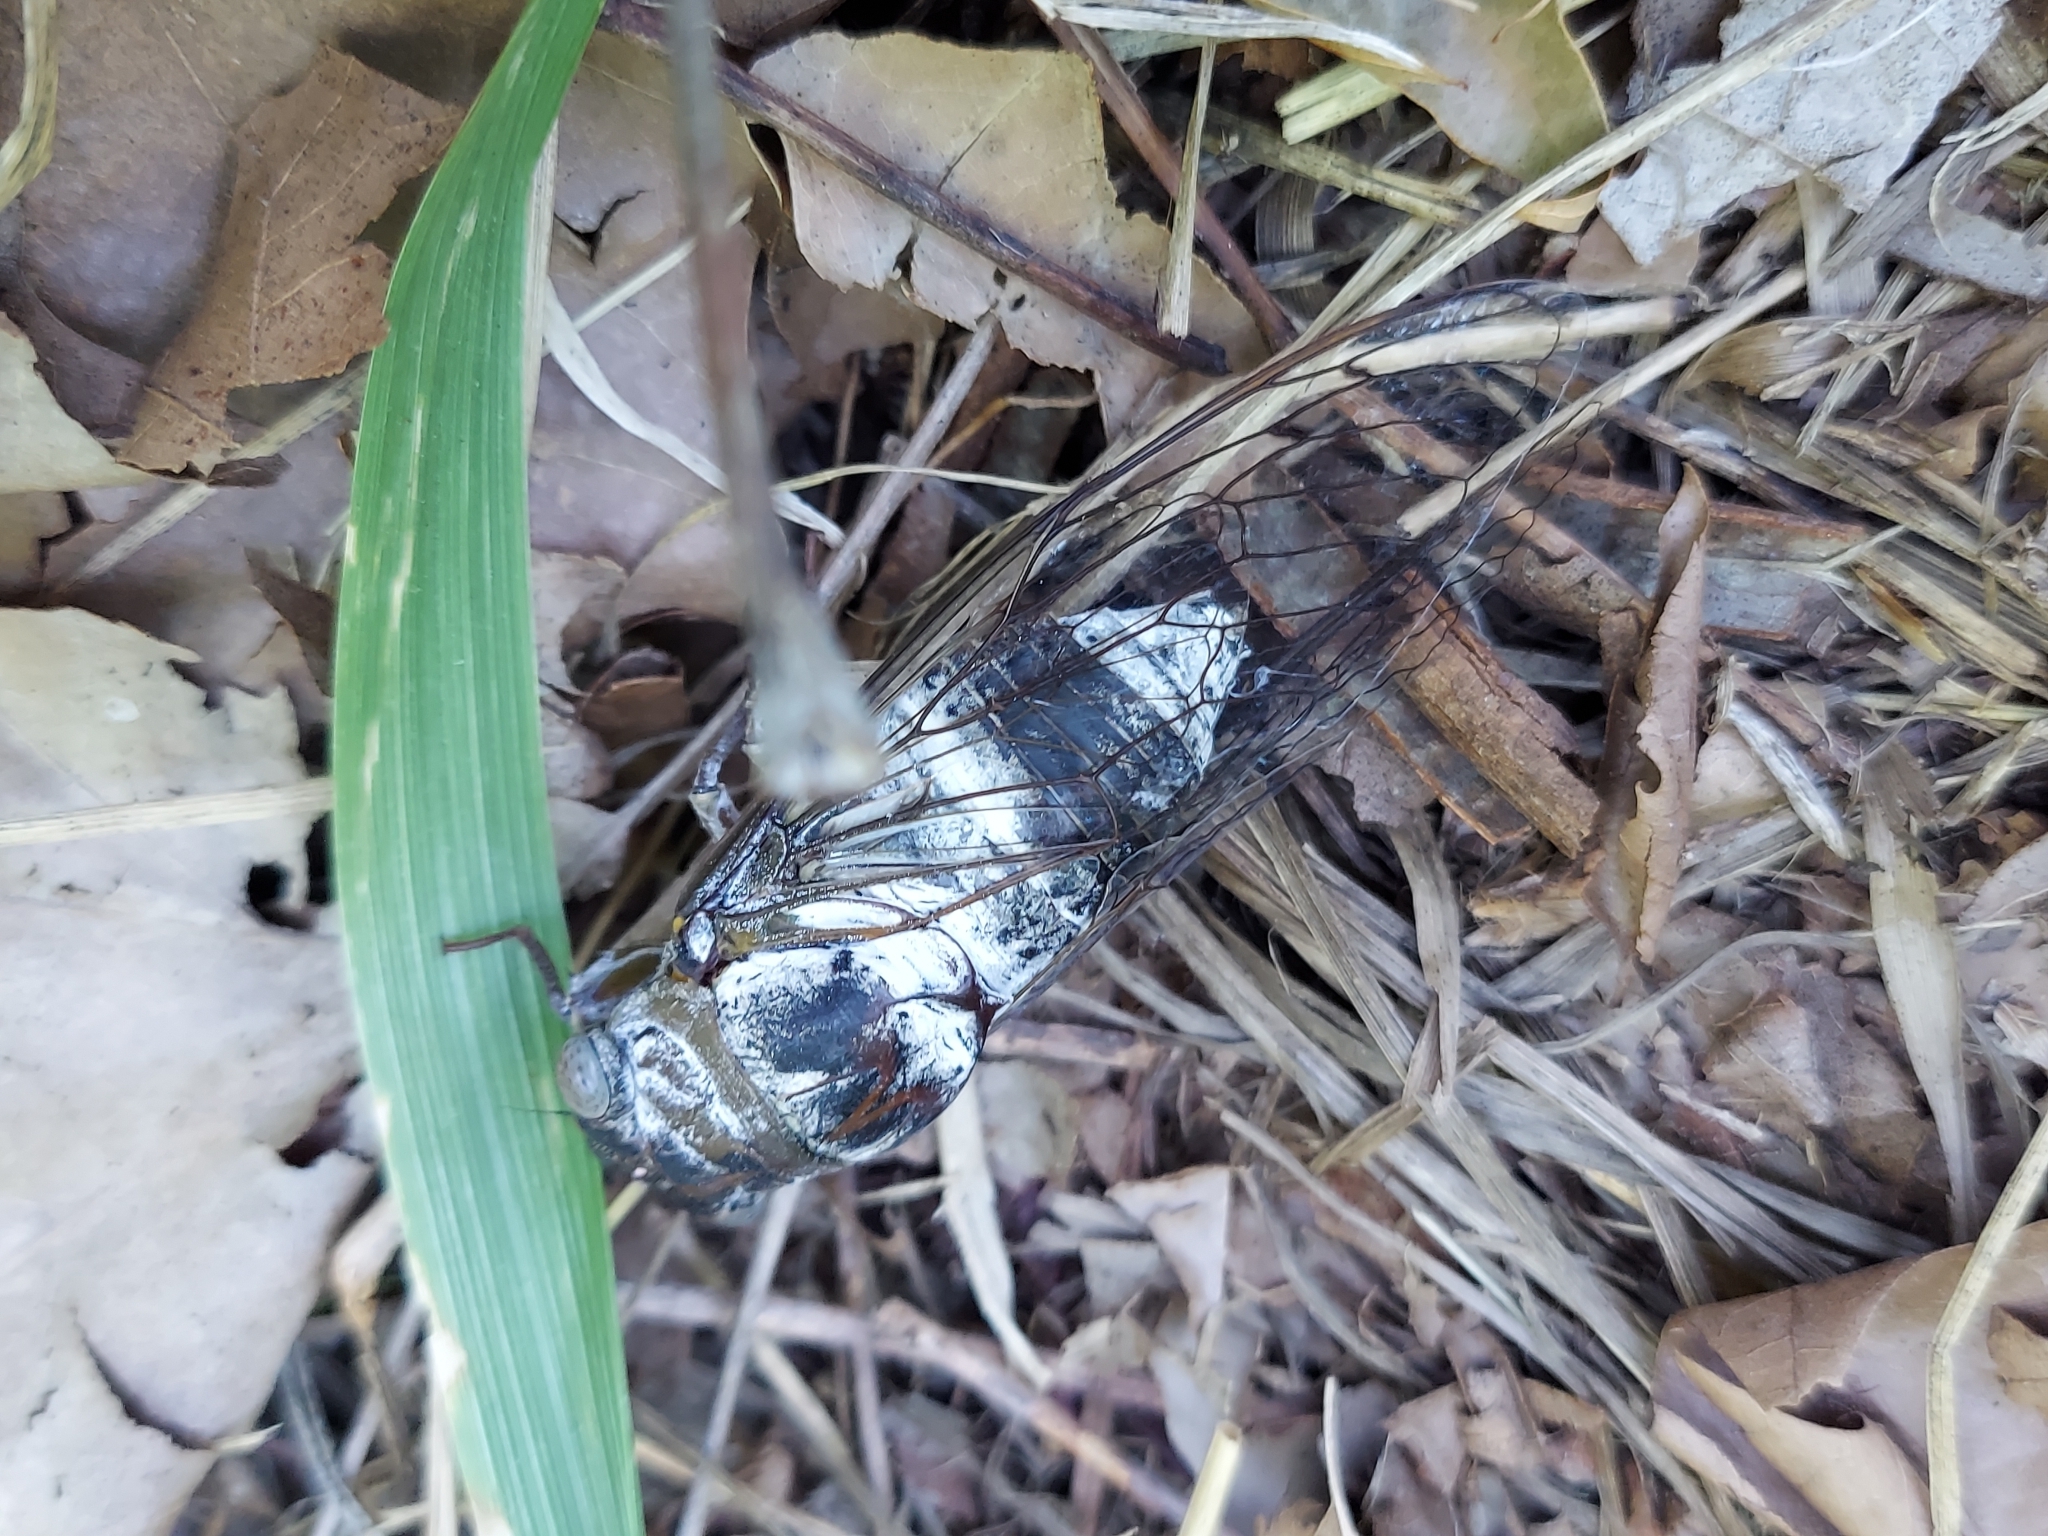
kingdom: Animalia
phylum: Arthropoda
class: Insecta
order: Hemiptera
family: Cicadidae
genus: Diceroprocta
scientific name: Diceroprocta grossa
